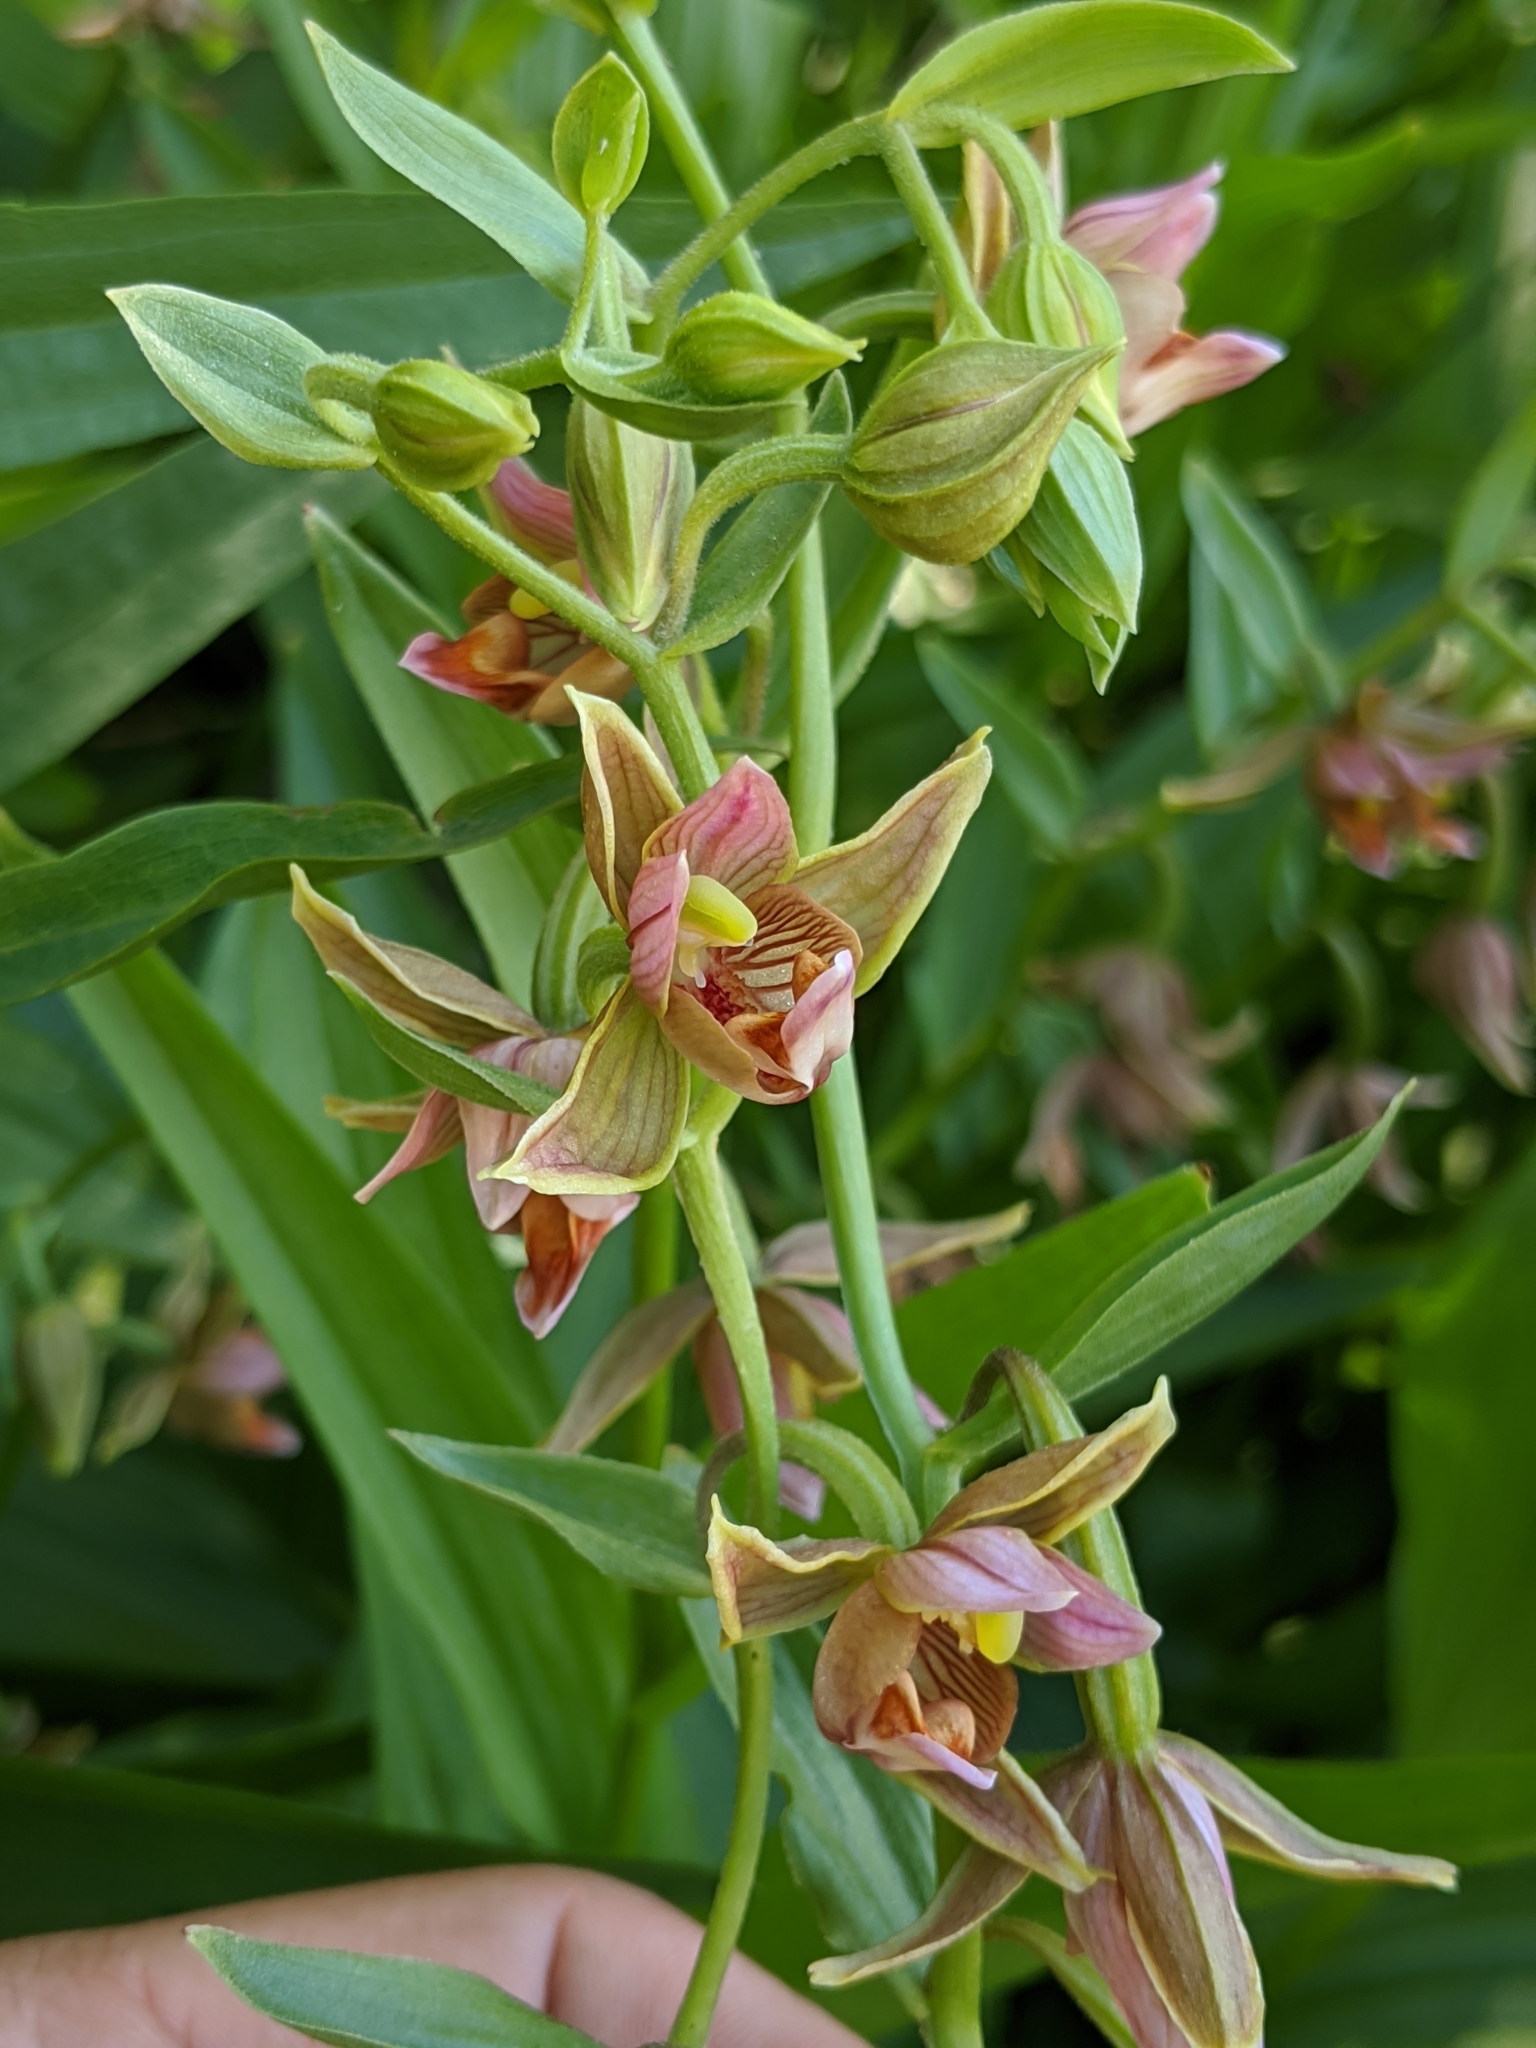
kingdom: Plantae
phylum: Tracheophyta
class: Liliopsida
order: Asparagales
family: Orchidaceae
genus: Epipactis
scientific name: Epipactis gigantea
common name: Chatterbox
